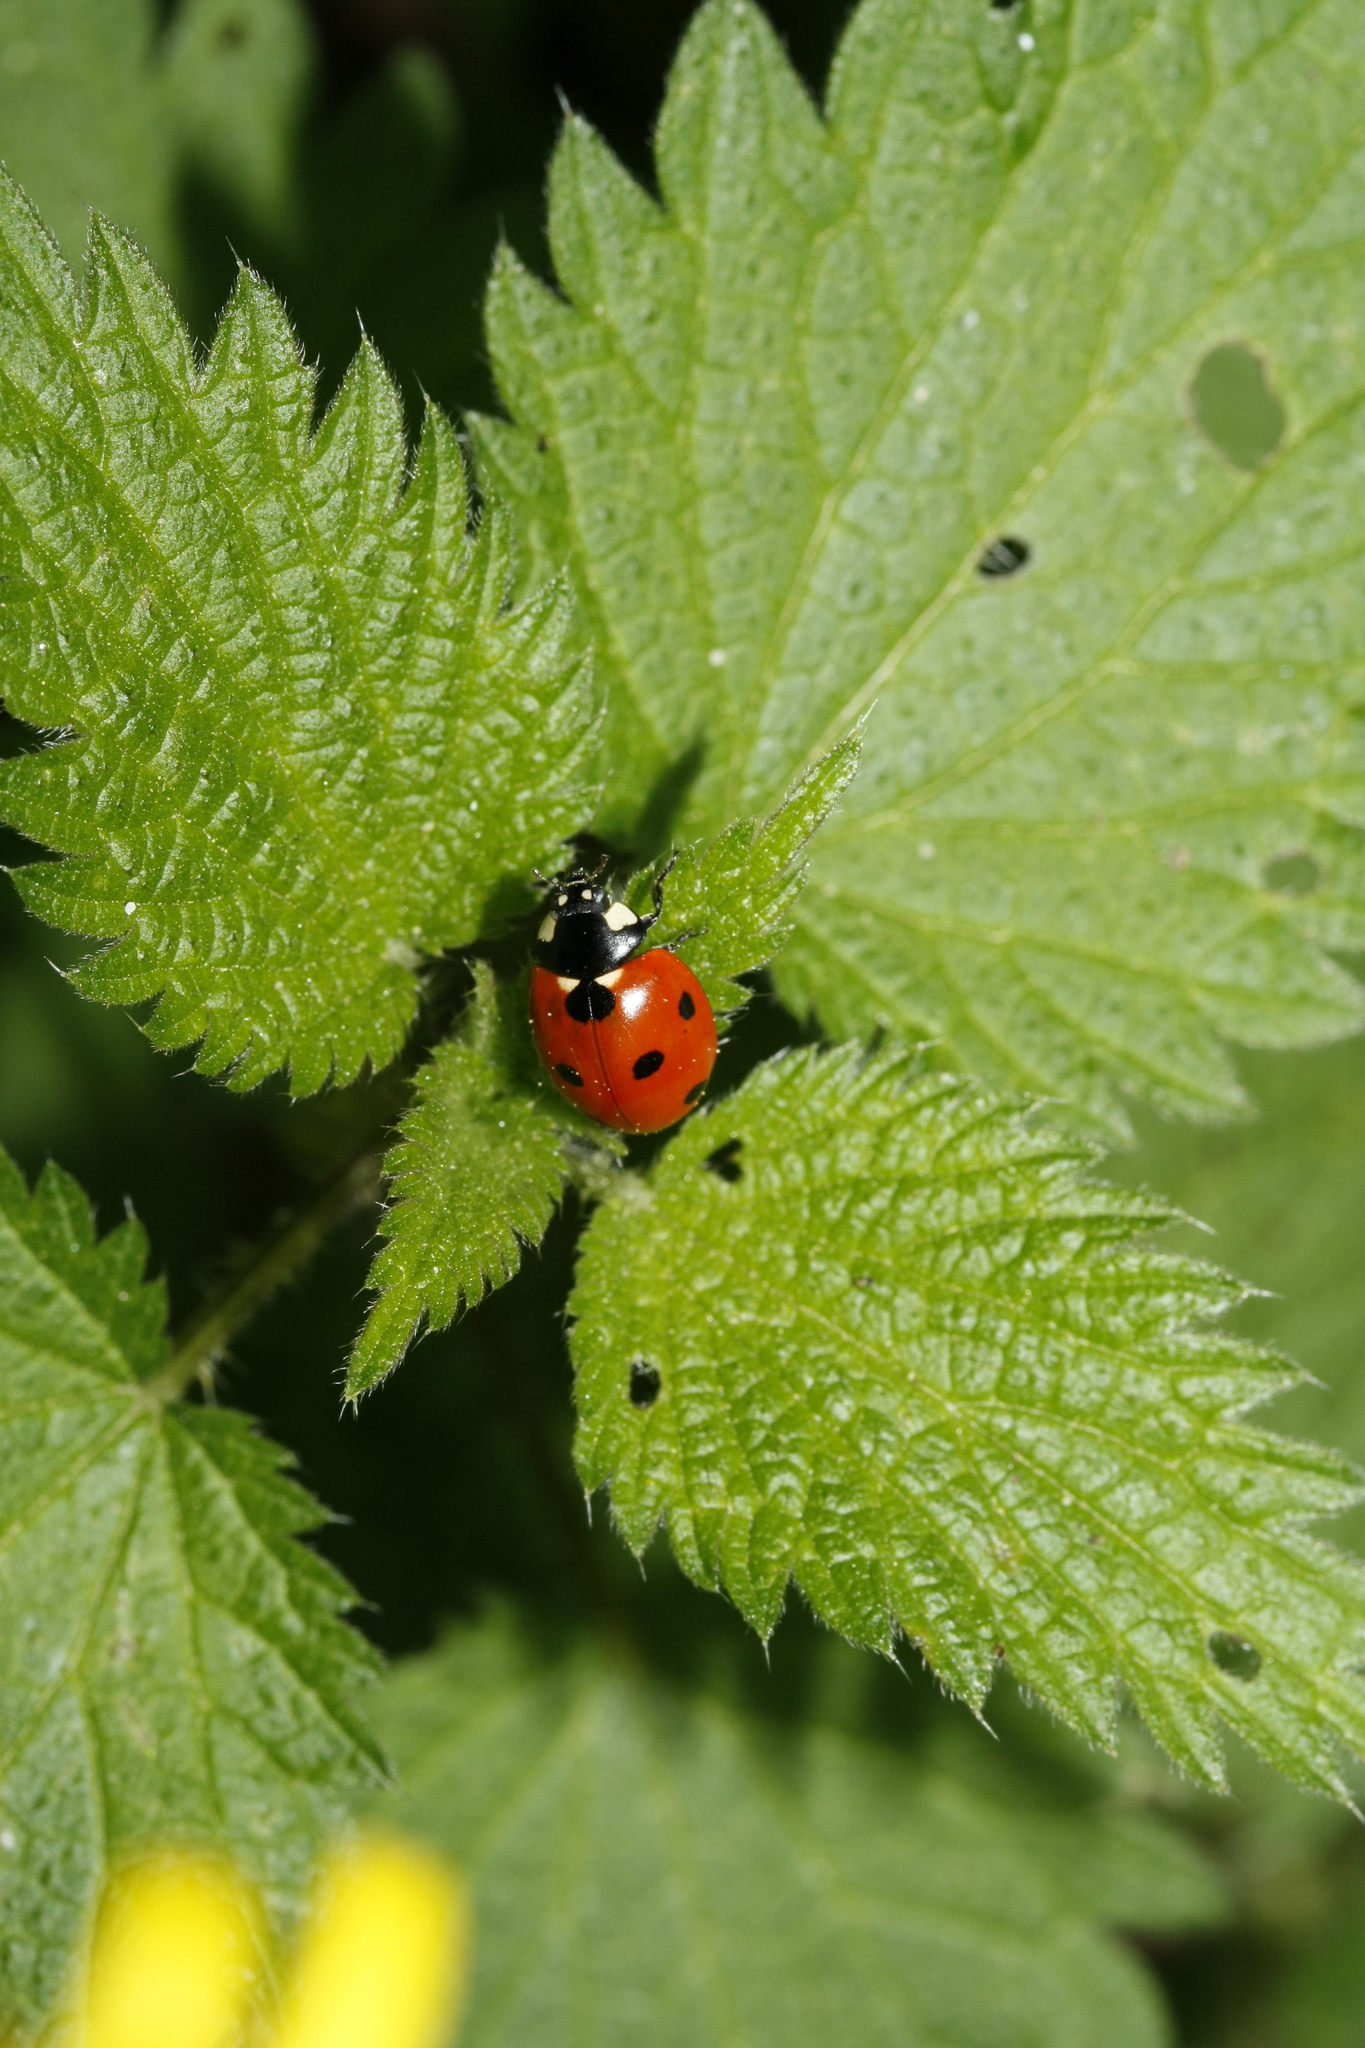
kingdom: Animalia
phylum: Arthropoda
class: Insecta
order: Coleoptera
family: Coccinellidae
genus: Coccinella
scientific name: Coccinella septempunctata
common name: Sevenspotted lady beetle
